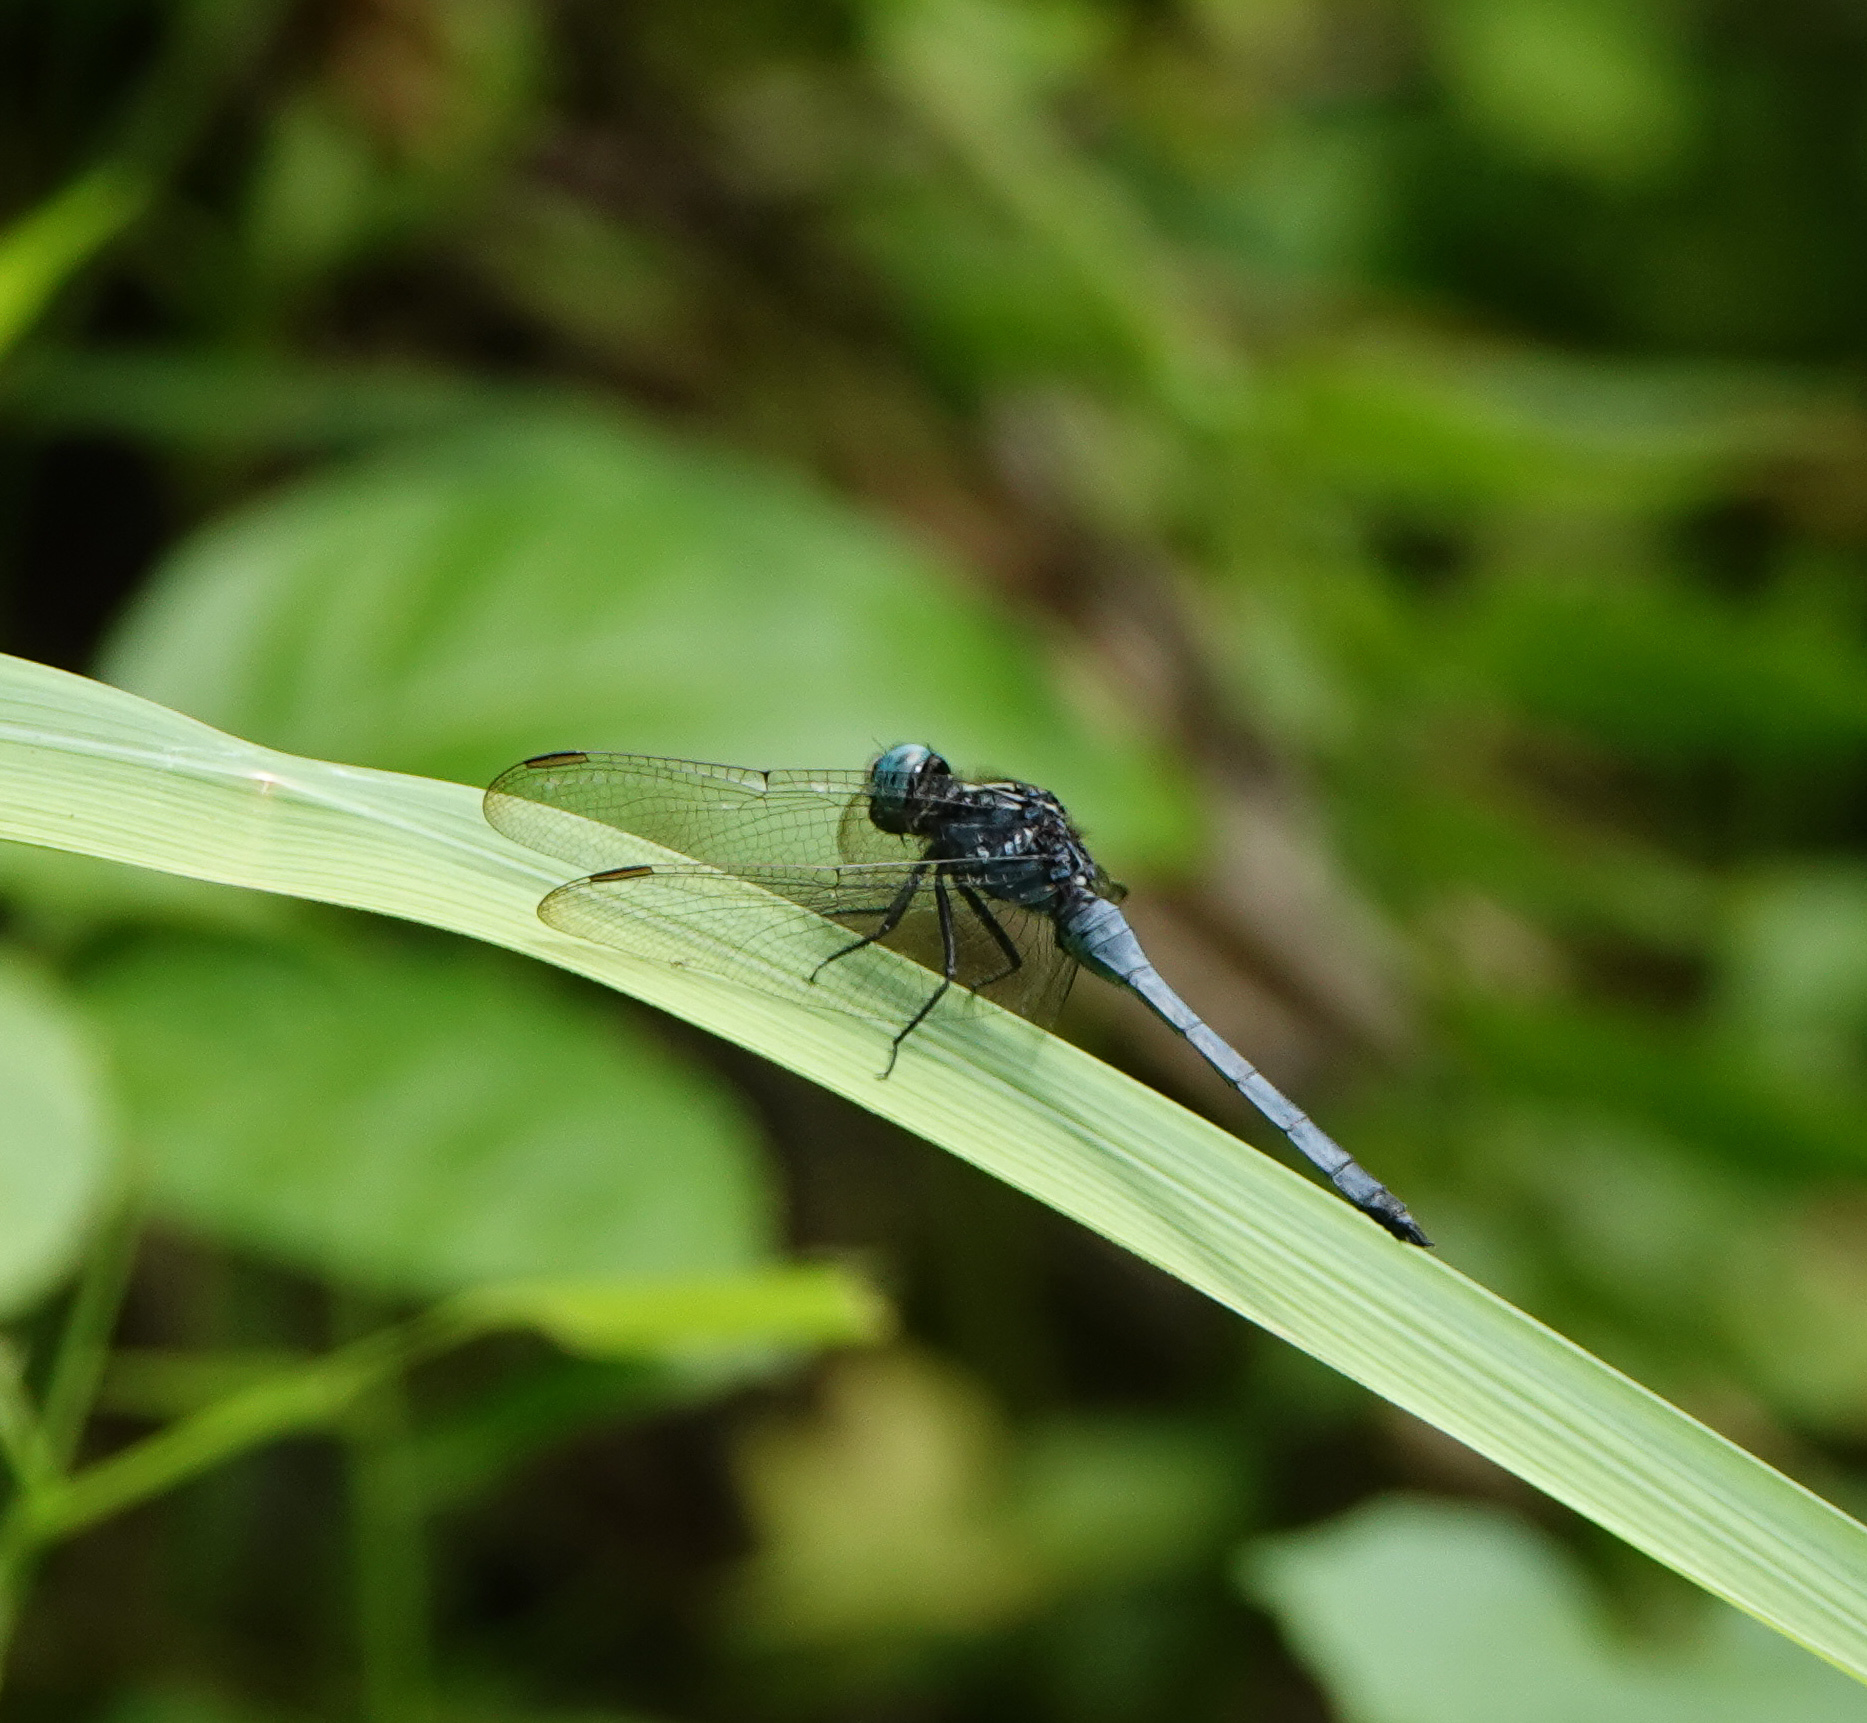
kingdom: Animalia
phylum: Arthropoda
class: Insecta
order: Odonata
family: Libellulidae
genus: Orthetrum
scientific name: Orthetrum luzonicum
